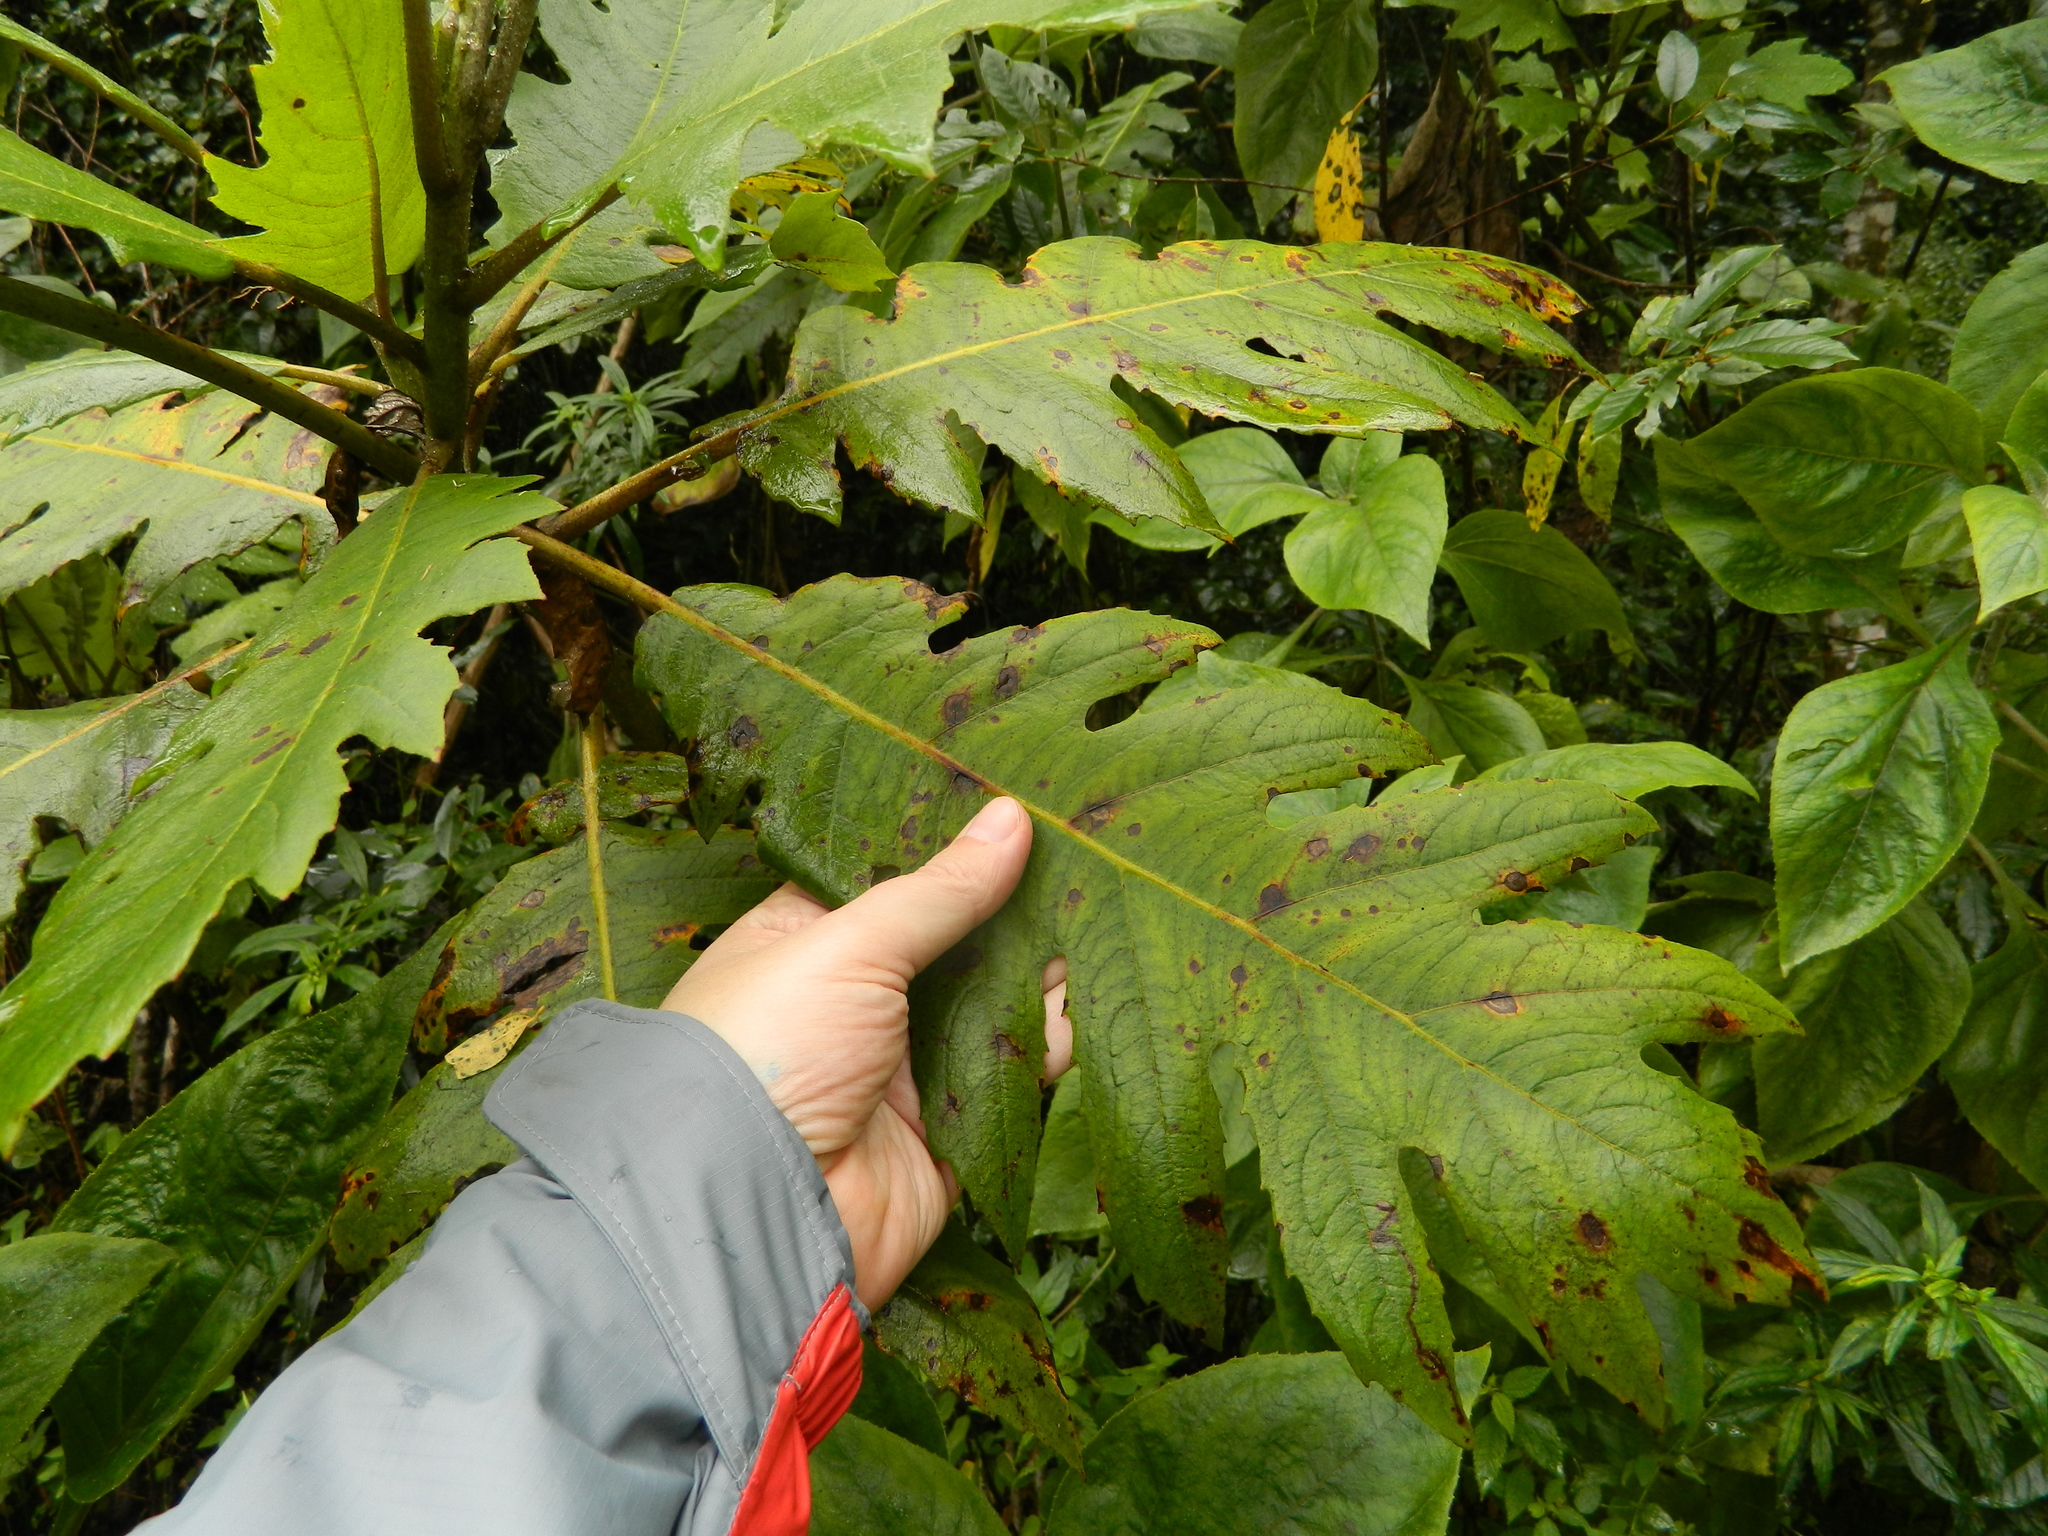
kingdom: Plantae
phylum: Tracheophyta
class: Magnoliopsida
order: Ranunculales
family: Papaveraceae
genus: Bocconia
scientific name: Bocconia frutescens
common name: Tree poppy
